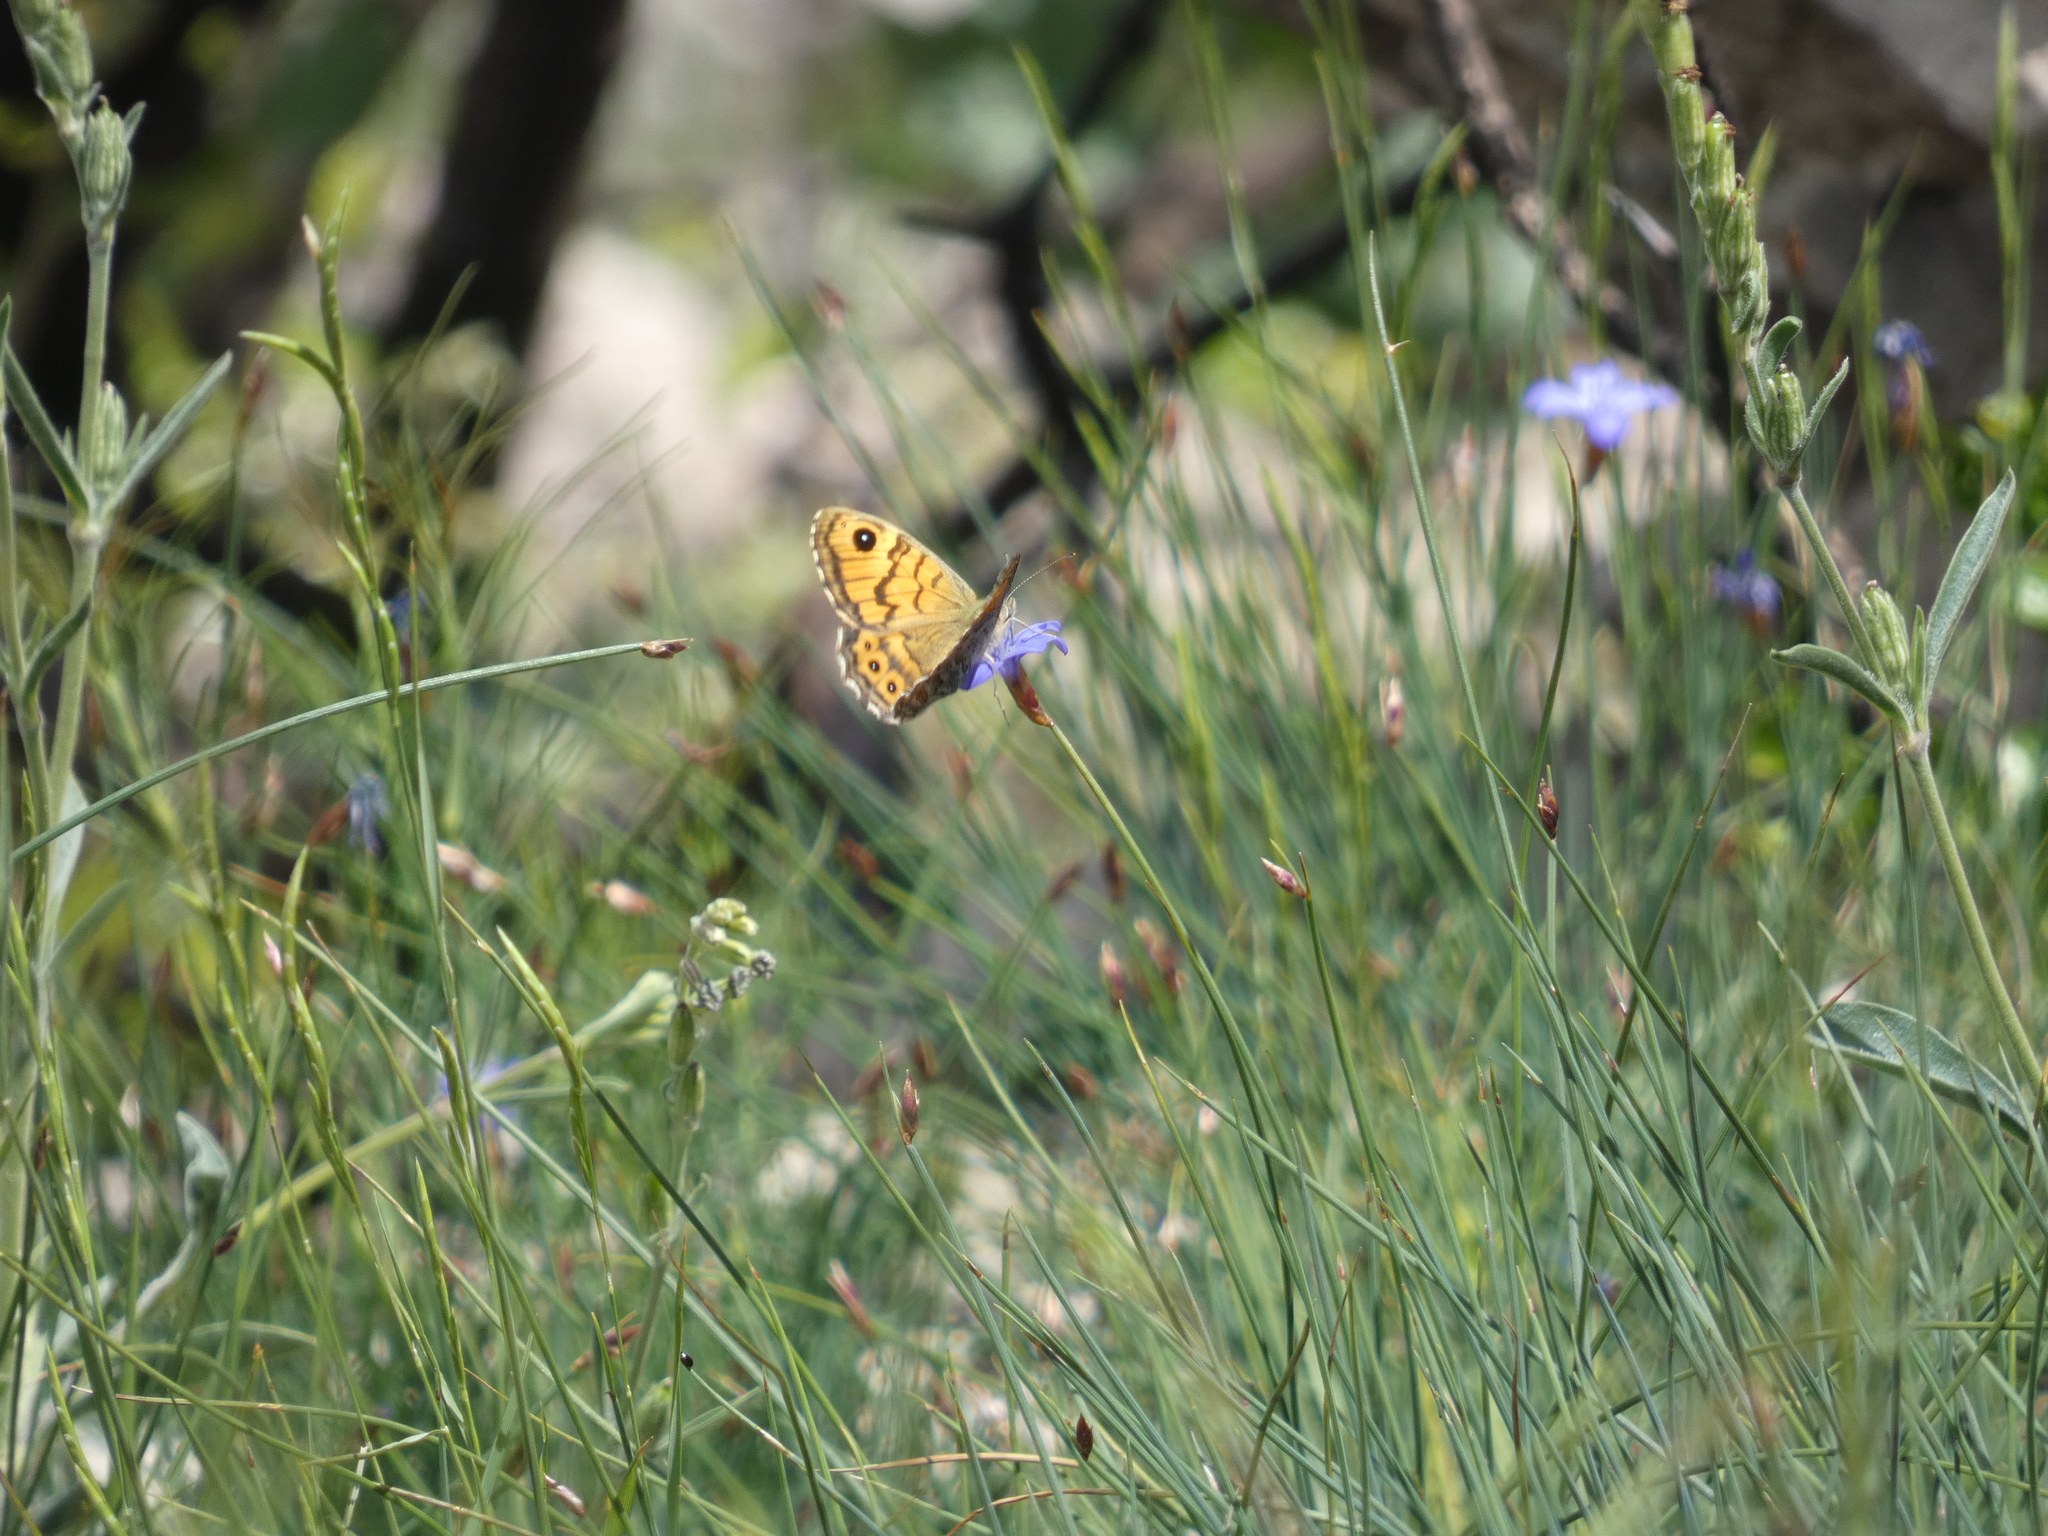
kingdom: Animalia
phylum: Arthropoda
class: Insecta
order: Lepidoptera
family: Nymphalidae
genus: Pararge
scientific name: Pararge Lasiommata megera
